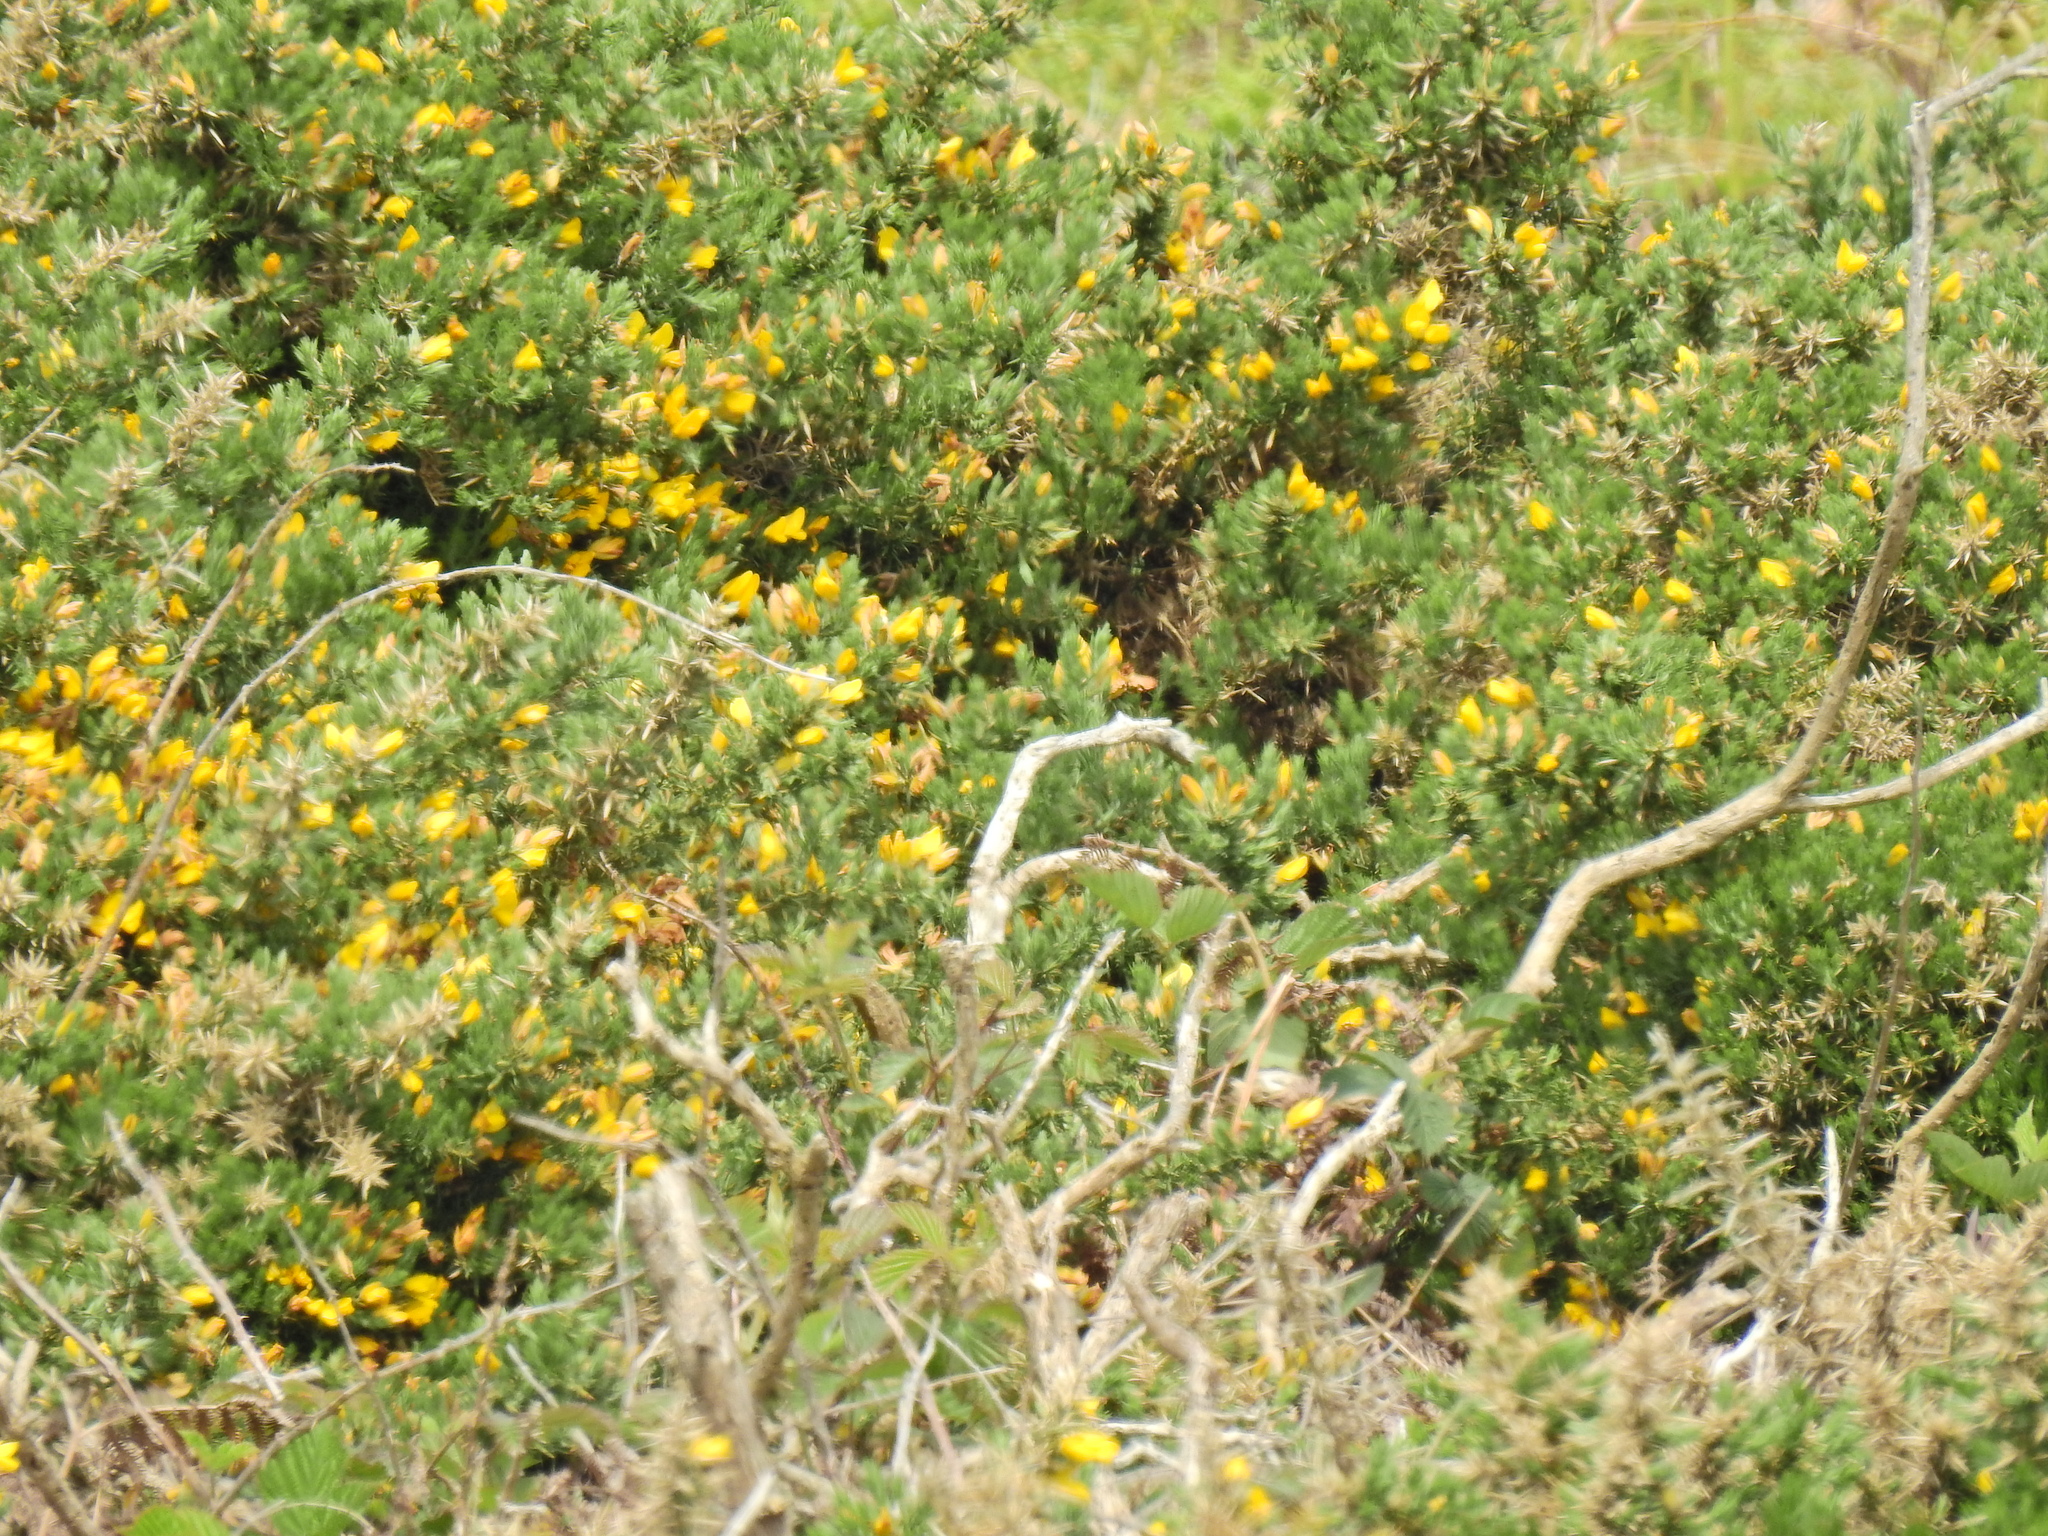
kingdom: Plantae
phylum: Tracheophyta
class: Magnoliopsida
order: Fabales
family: Fabaceae
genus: Ulex
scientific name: Ulex europaeus
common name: Common gorse
